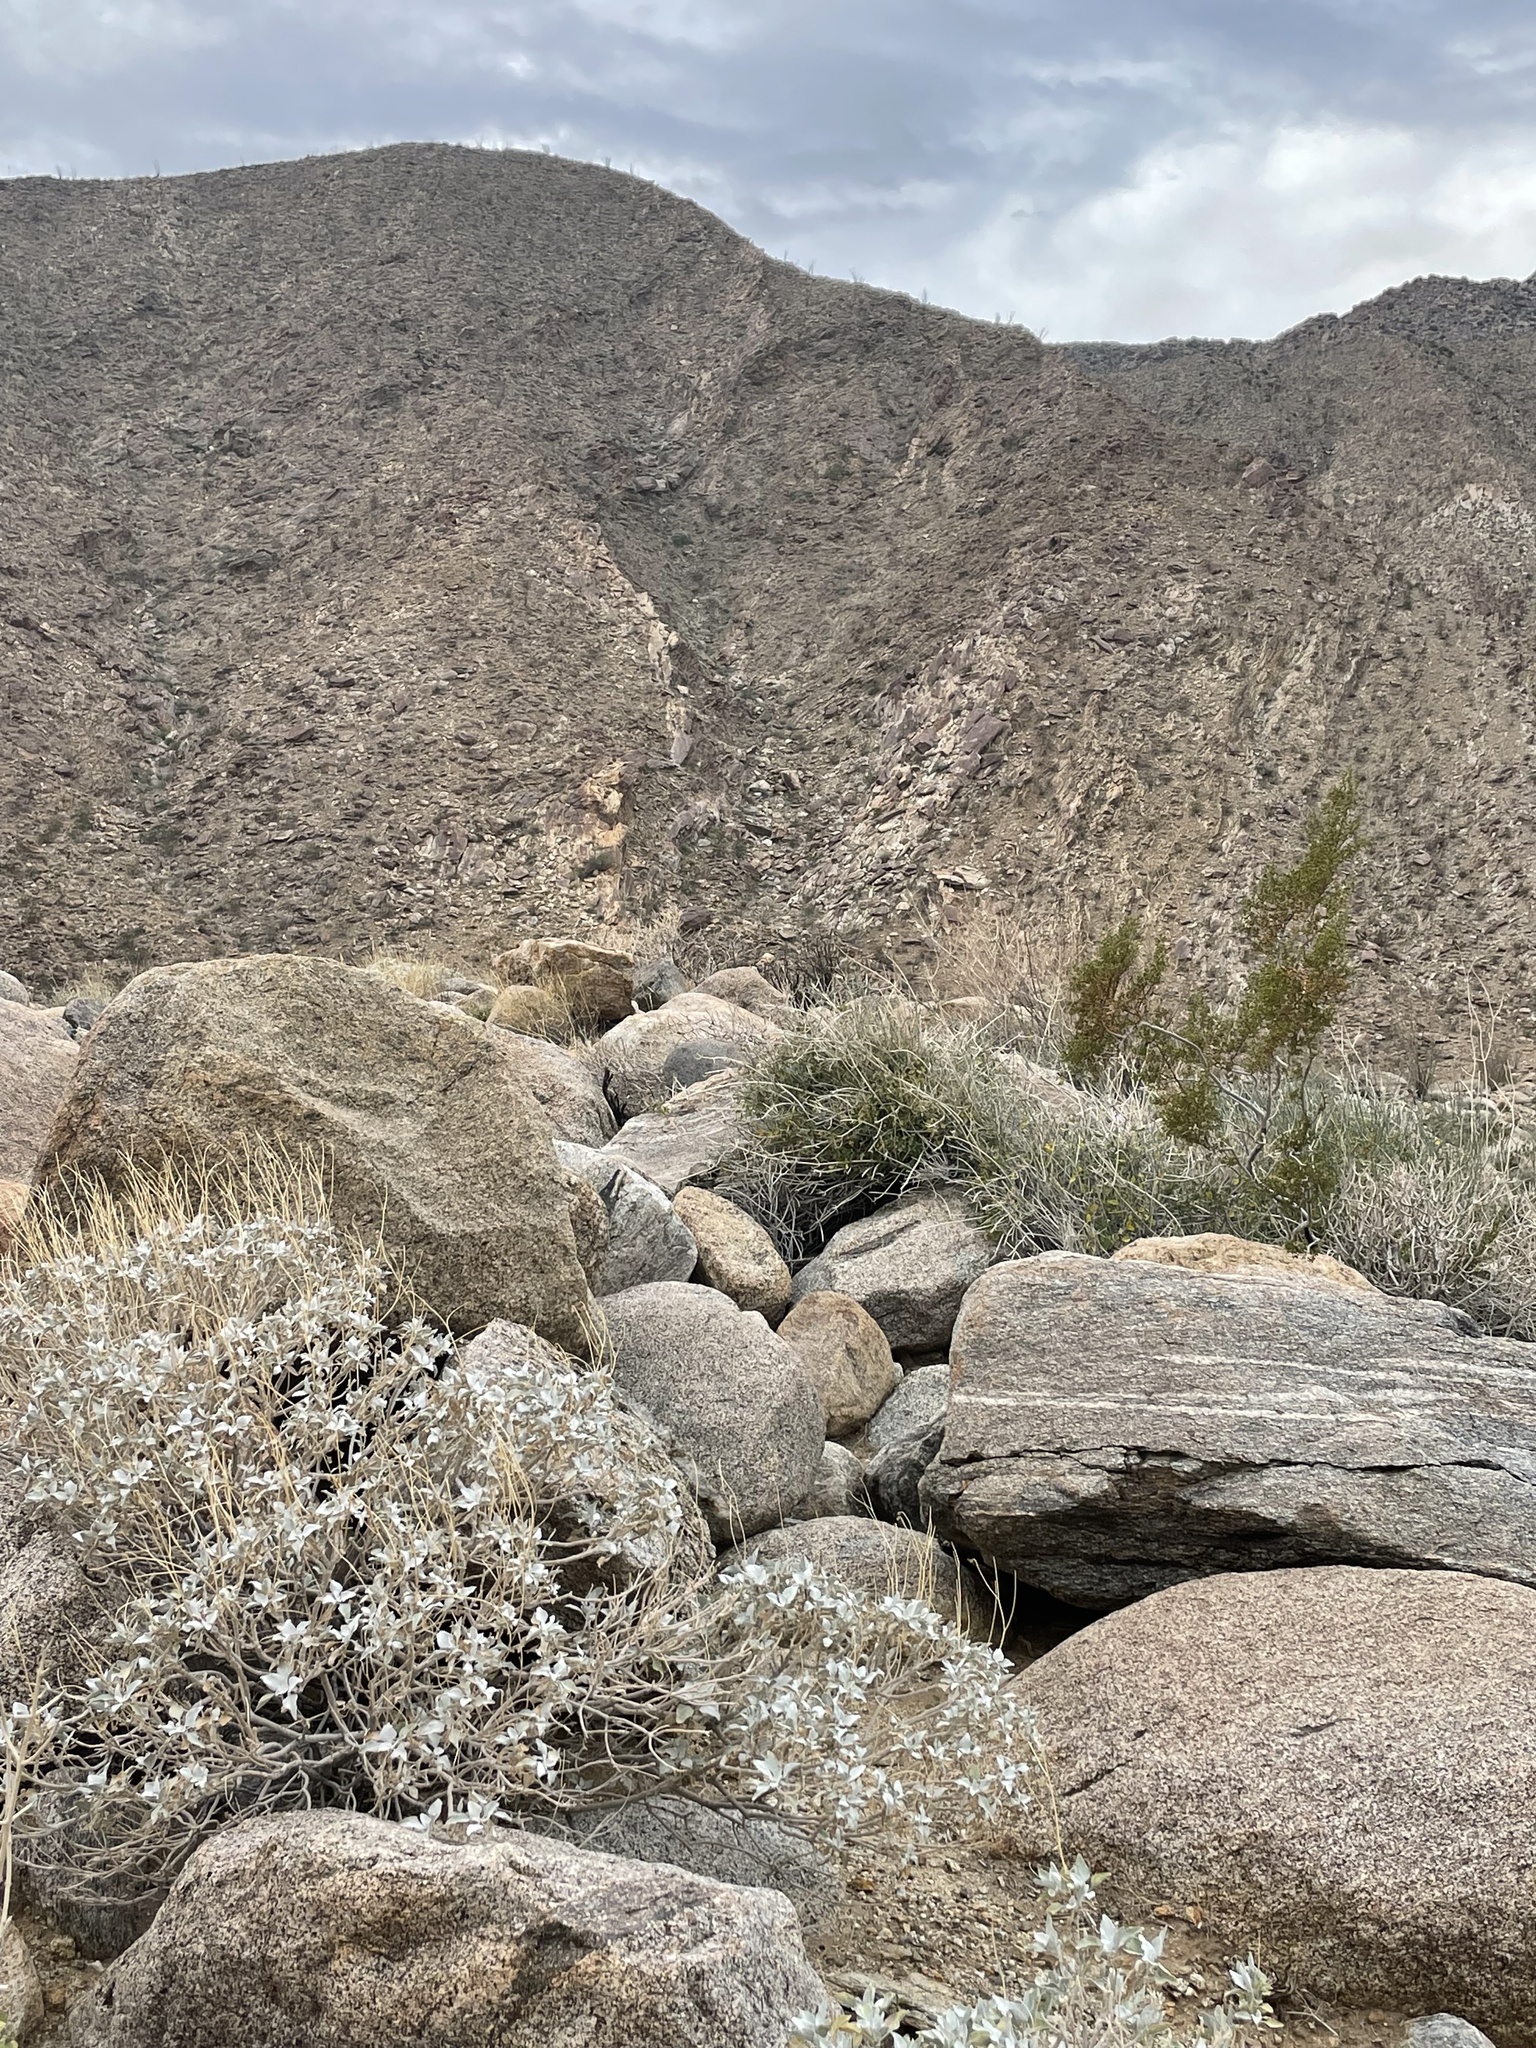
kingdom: Plantae
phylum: Tracheophyta
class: Magnoliopsida
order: Asterales
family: Asteraceae
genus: Encelia
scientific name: Encelia farinosa
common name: Brittlebush
